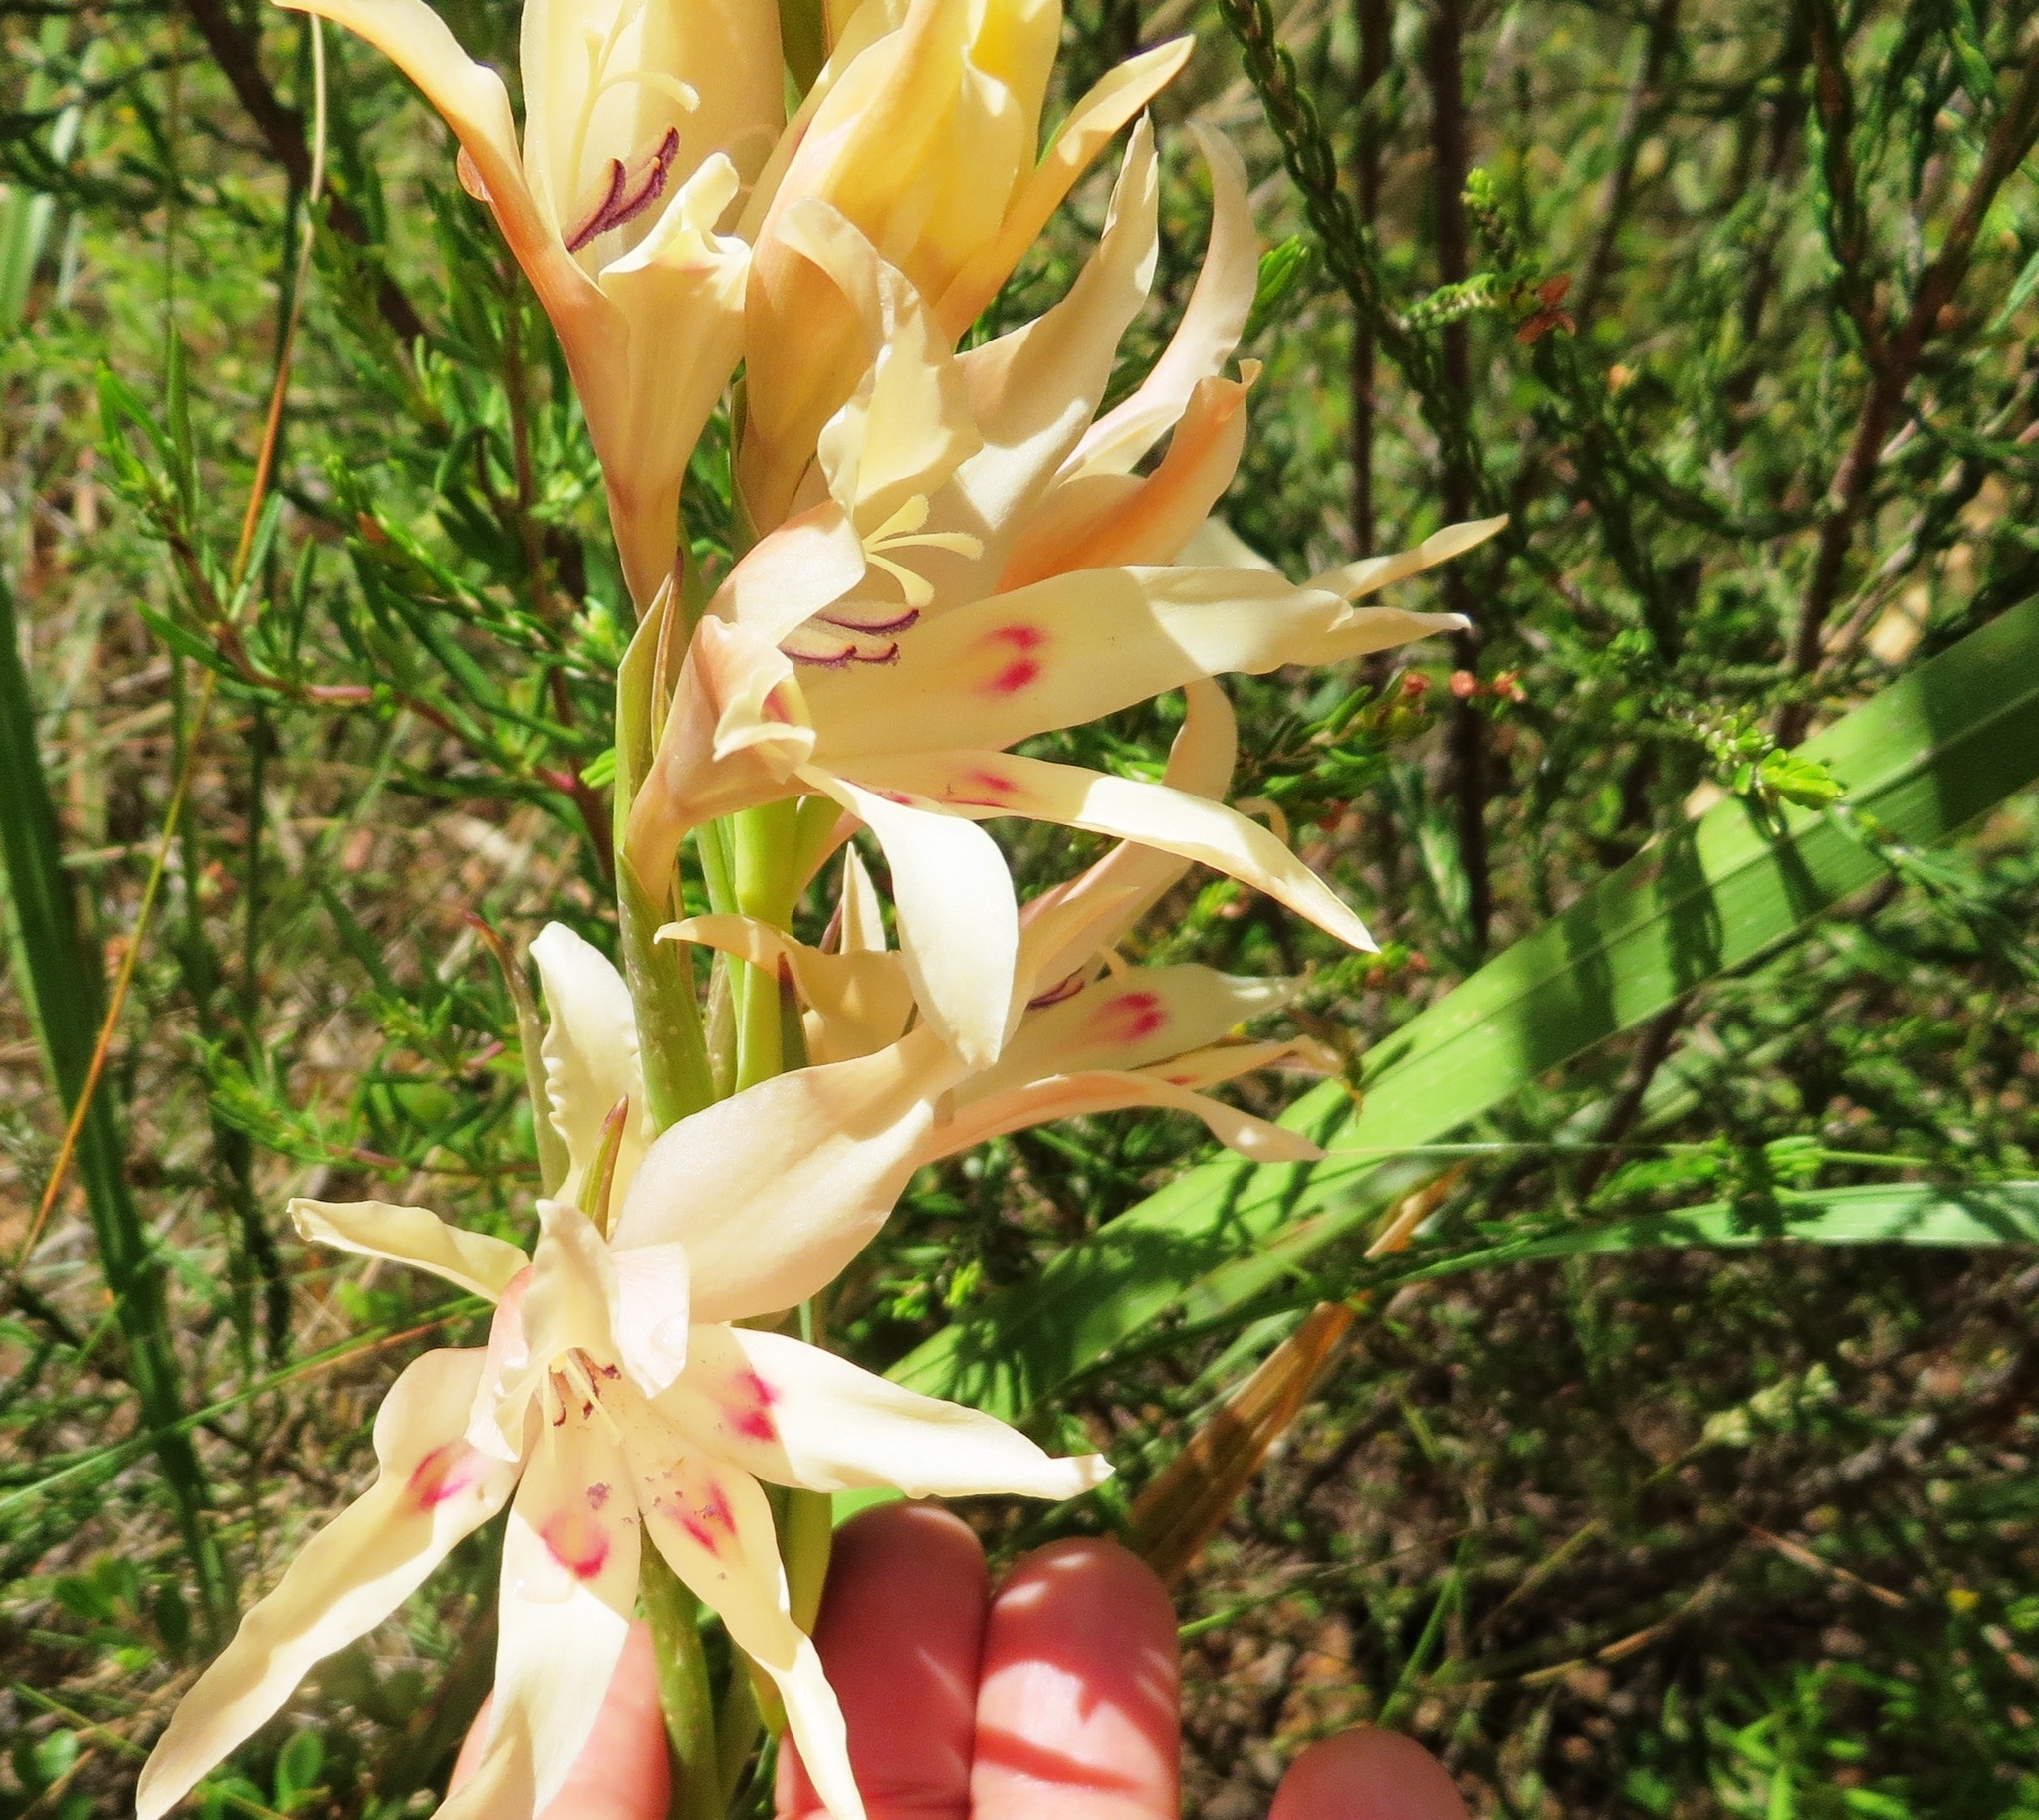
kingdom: Plantae
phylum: Tracheophyta
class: Liliopsida
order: Asparagales
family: Iridaceae
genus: Gladiolus
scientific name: Gladiolus undulatus
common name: Large painted-lady
